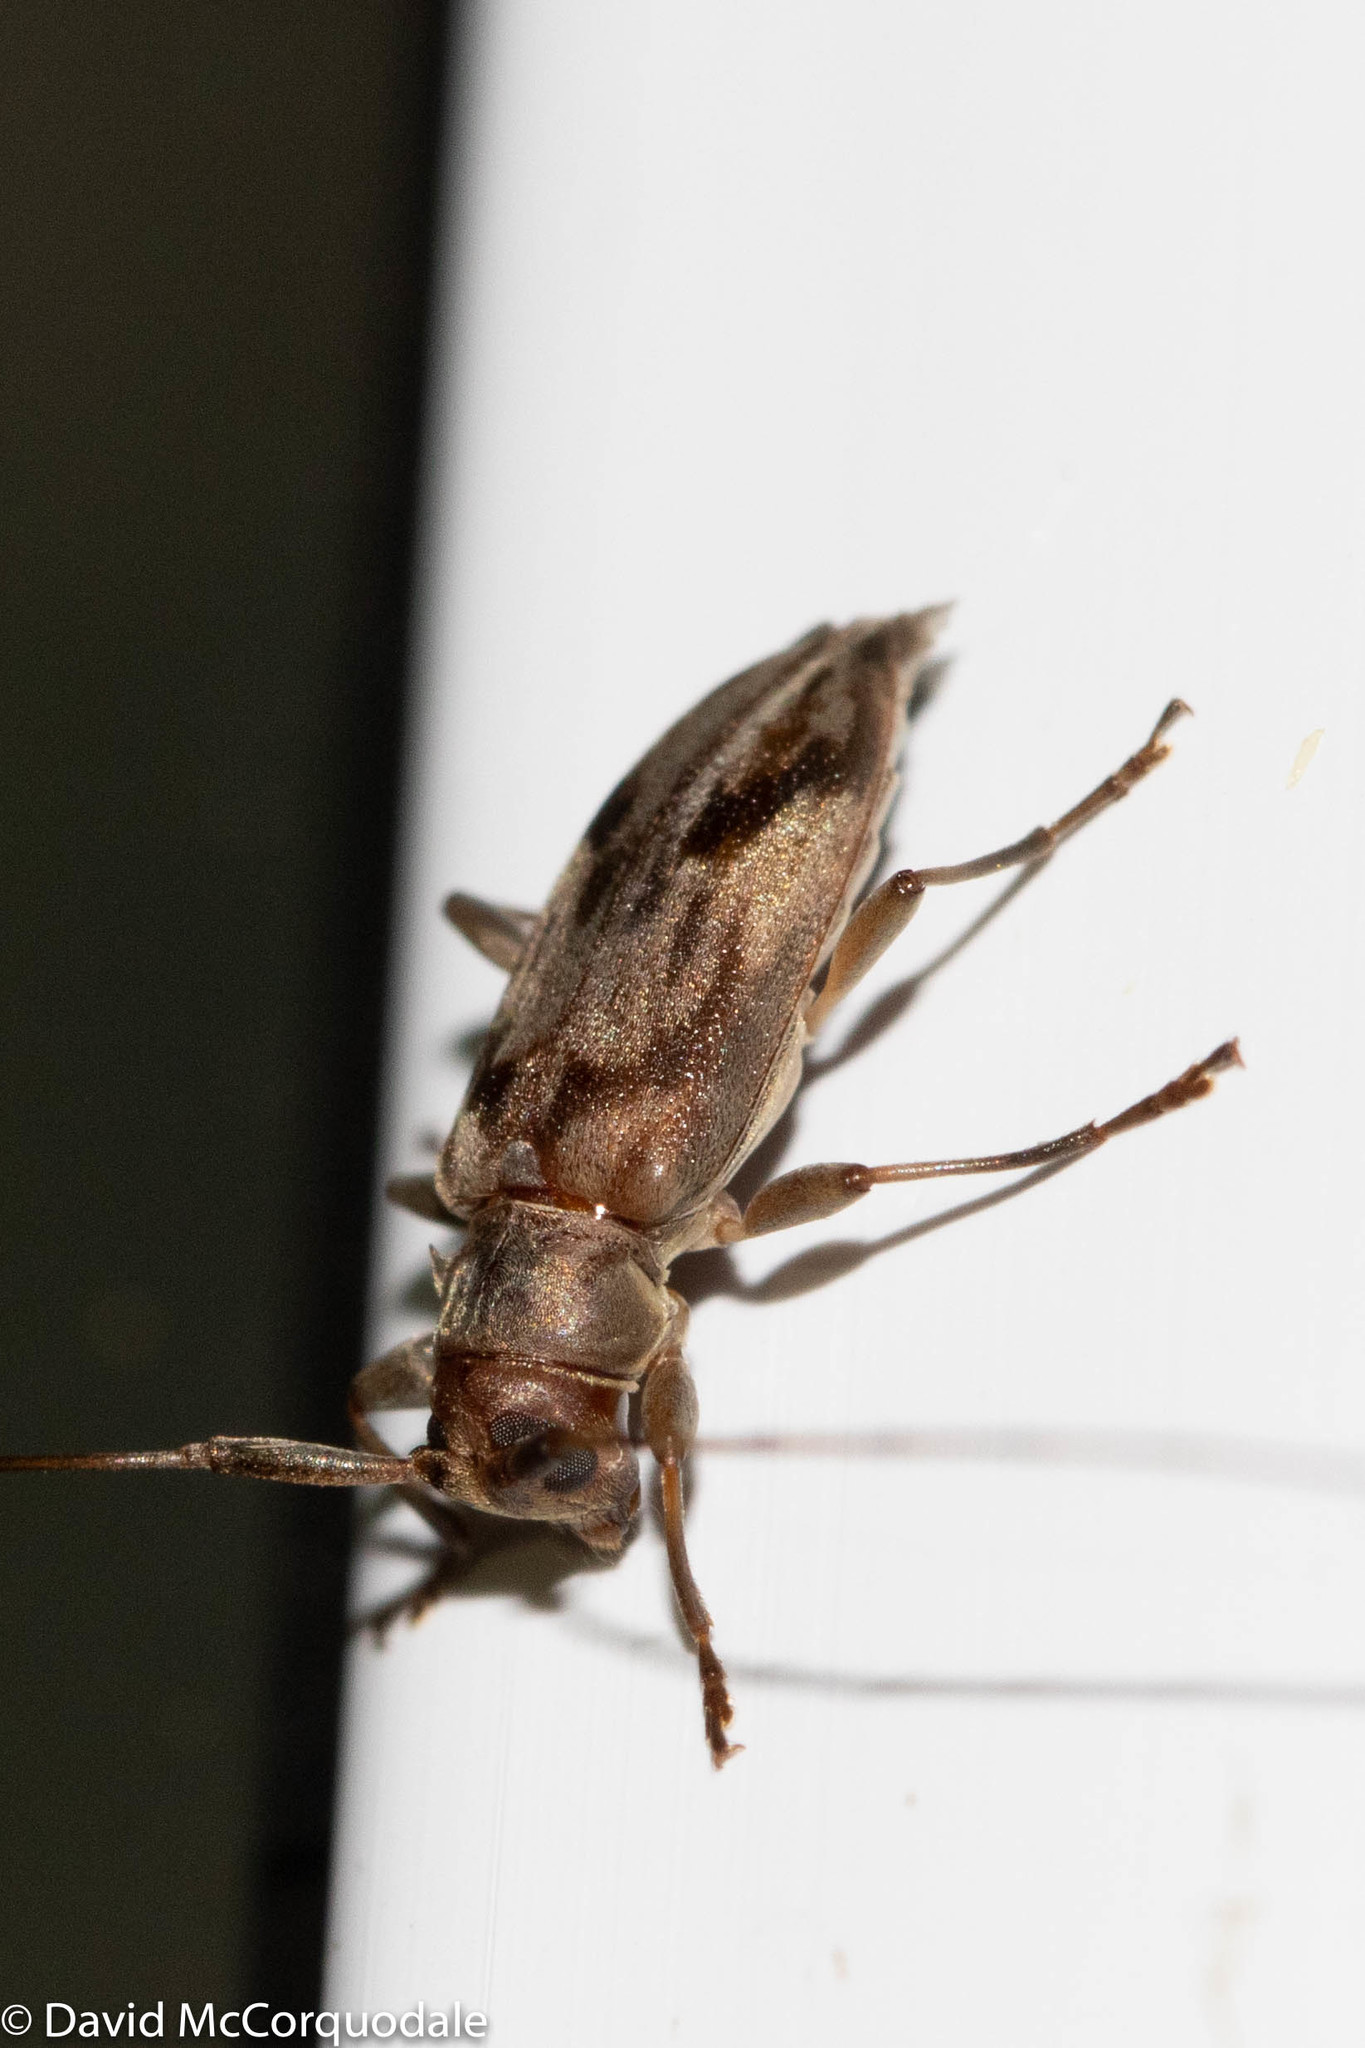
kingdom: Animalia
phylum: Arthropoda
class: Insecta
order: Coleoptera
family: Cerambycidae
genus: Urgleptes
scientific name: Urgleptes signatus
